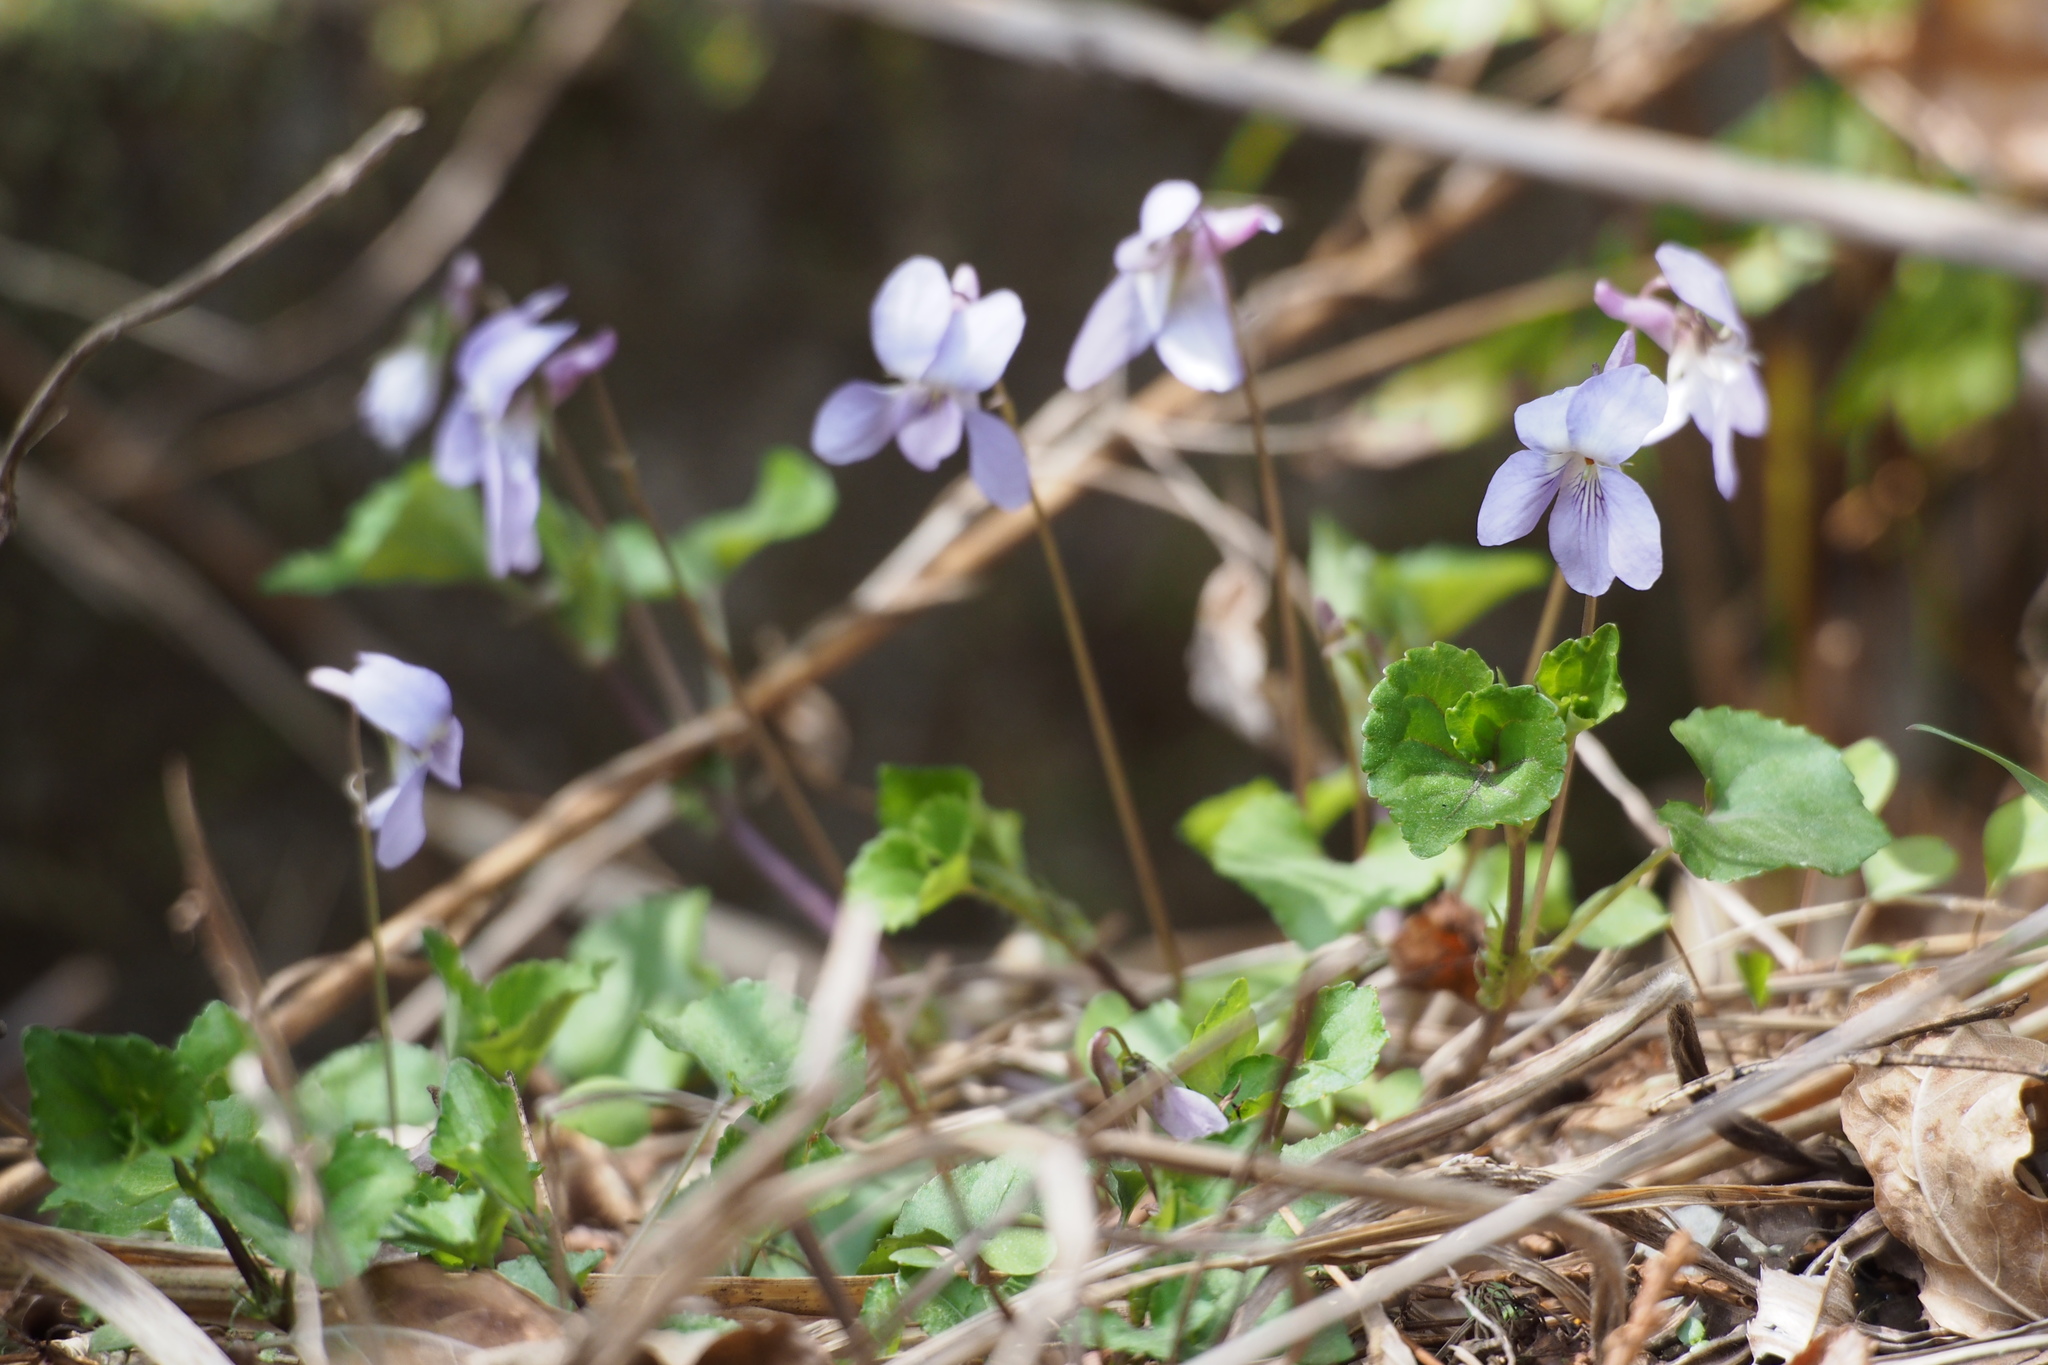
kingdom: Plantae
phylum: Tracheophyta
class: Magnoliopsida
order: Malpighiales
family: Violaceae
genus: Viola
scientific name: Viola grypoceras
